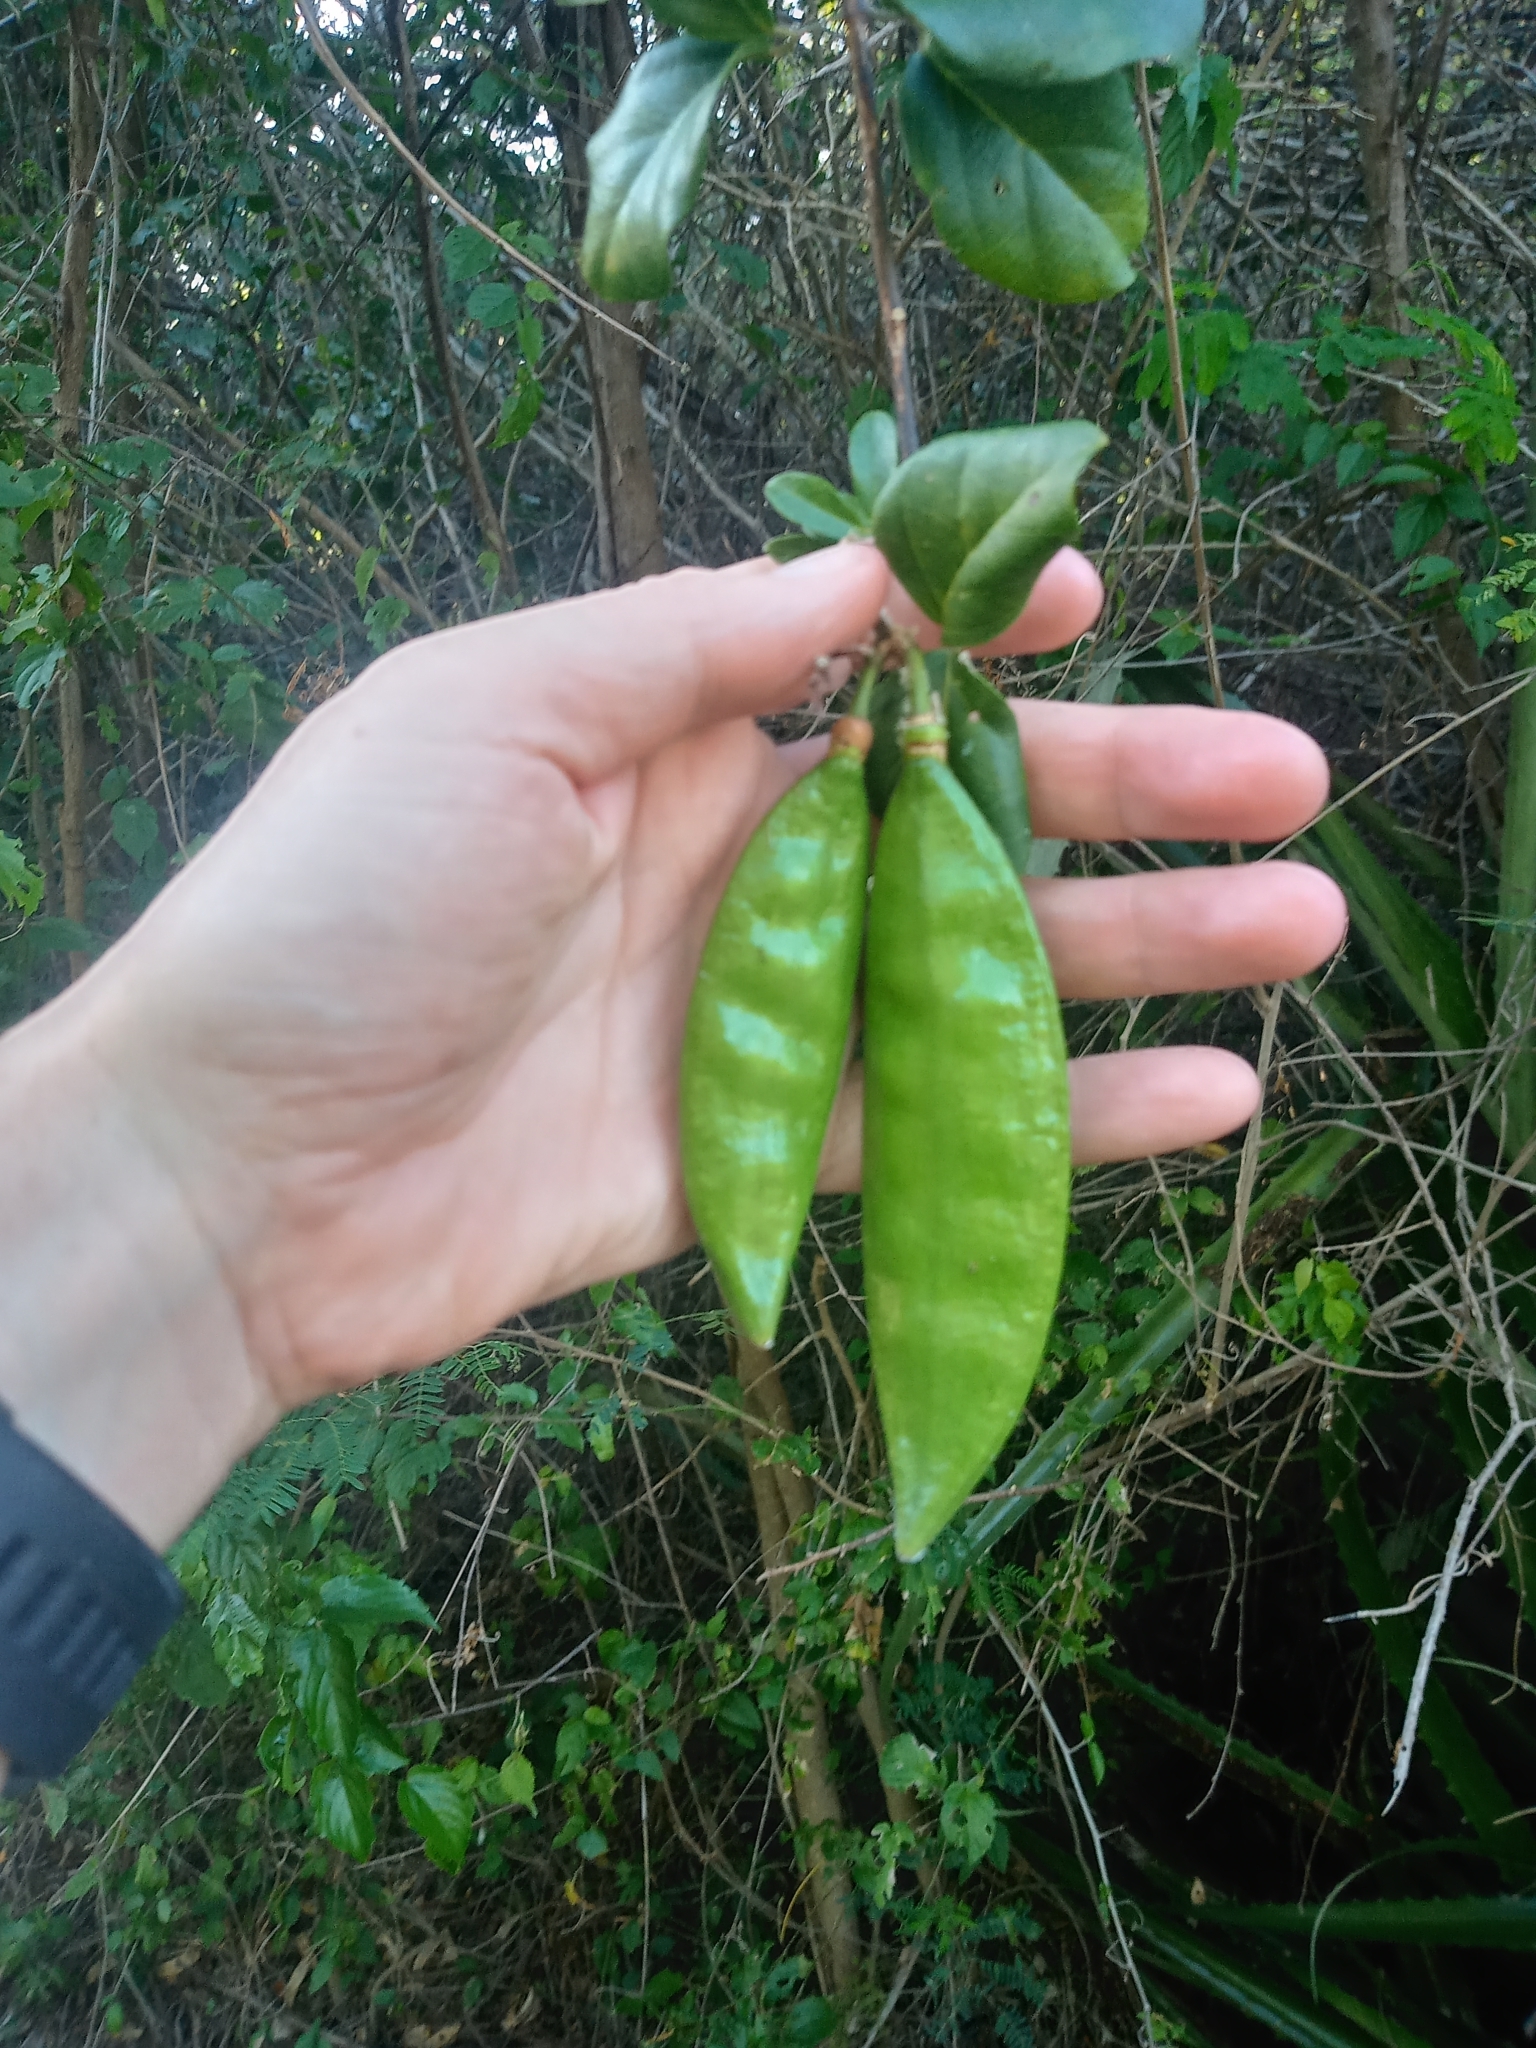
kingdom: Plantae
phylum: Tracheophyta
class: Magnoliopsida
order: Lamiales
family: Bignoniaceae
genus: Amphilophium
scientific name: Amphilophium lactiflorum
